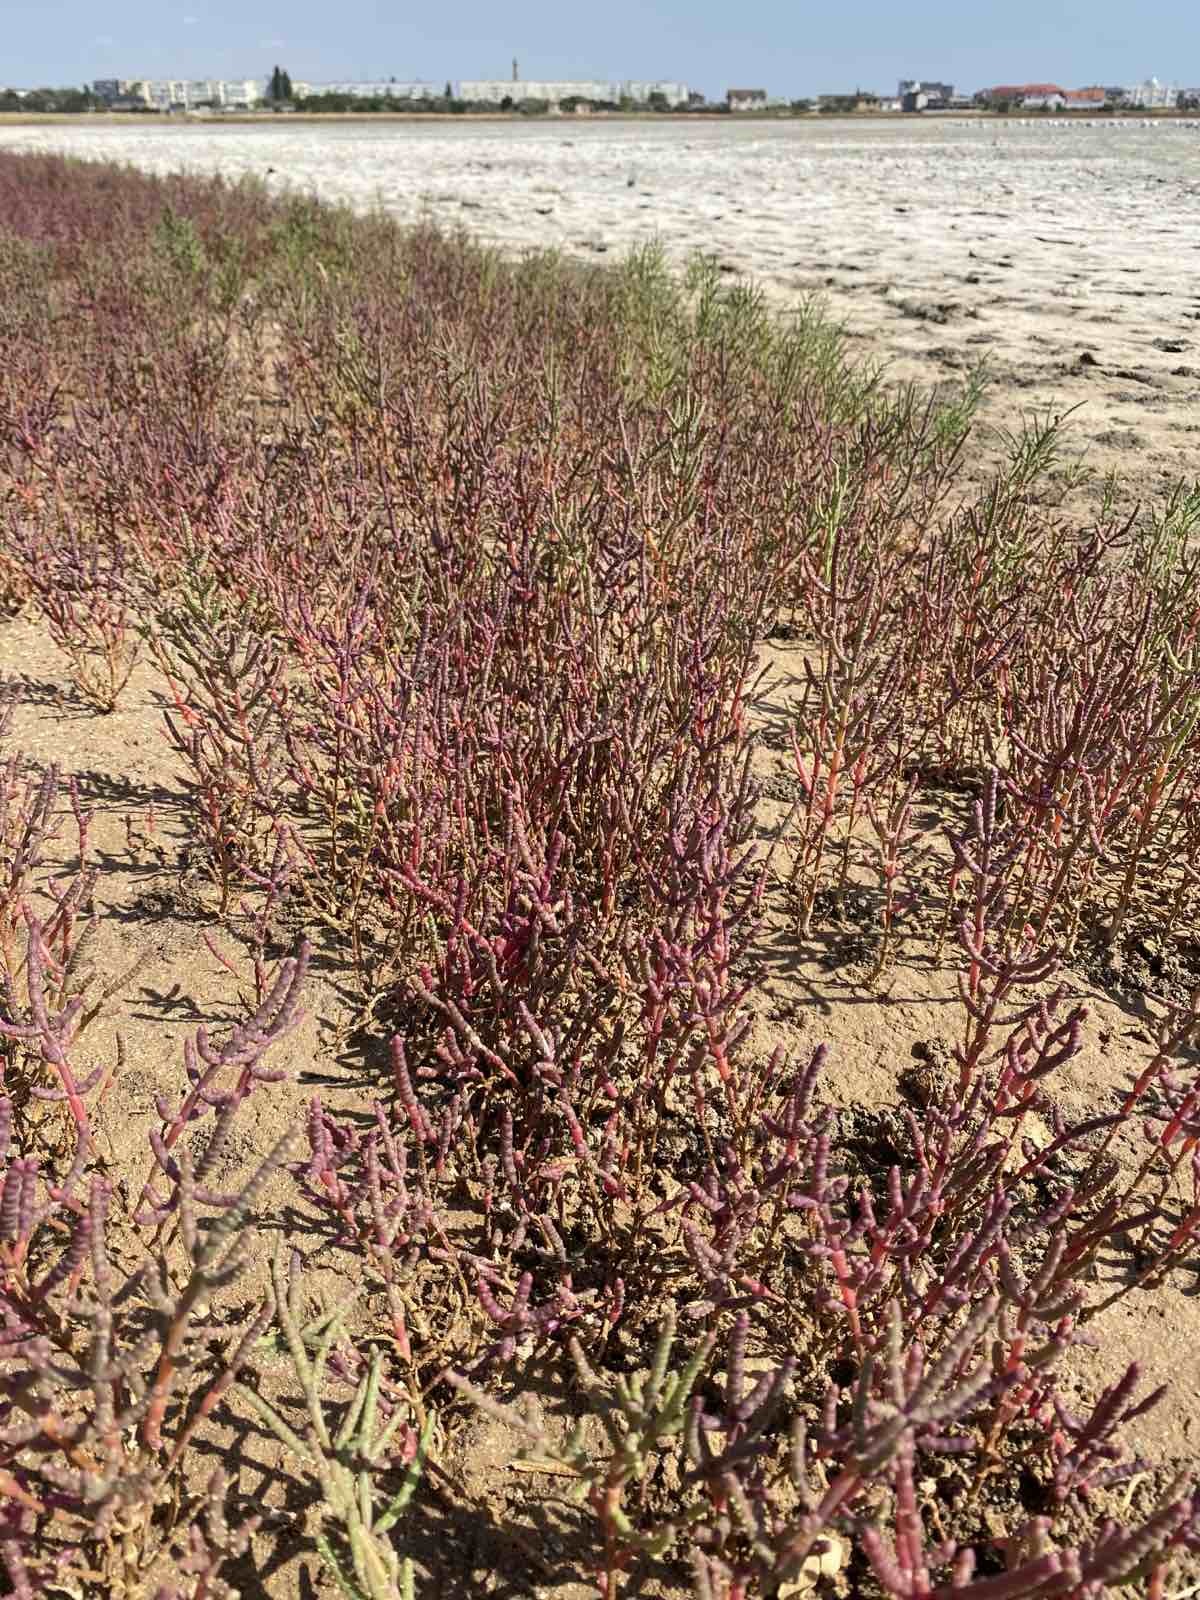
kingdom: Plantae
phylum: Tracheophyta
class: Magnoliopsida
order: Caryophyllales
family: Amaranthaceae
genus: Salicornia
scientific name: Salicornia perennans
